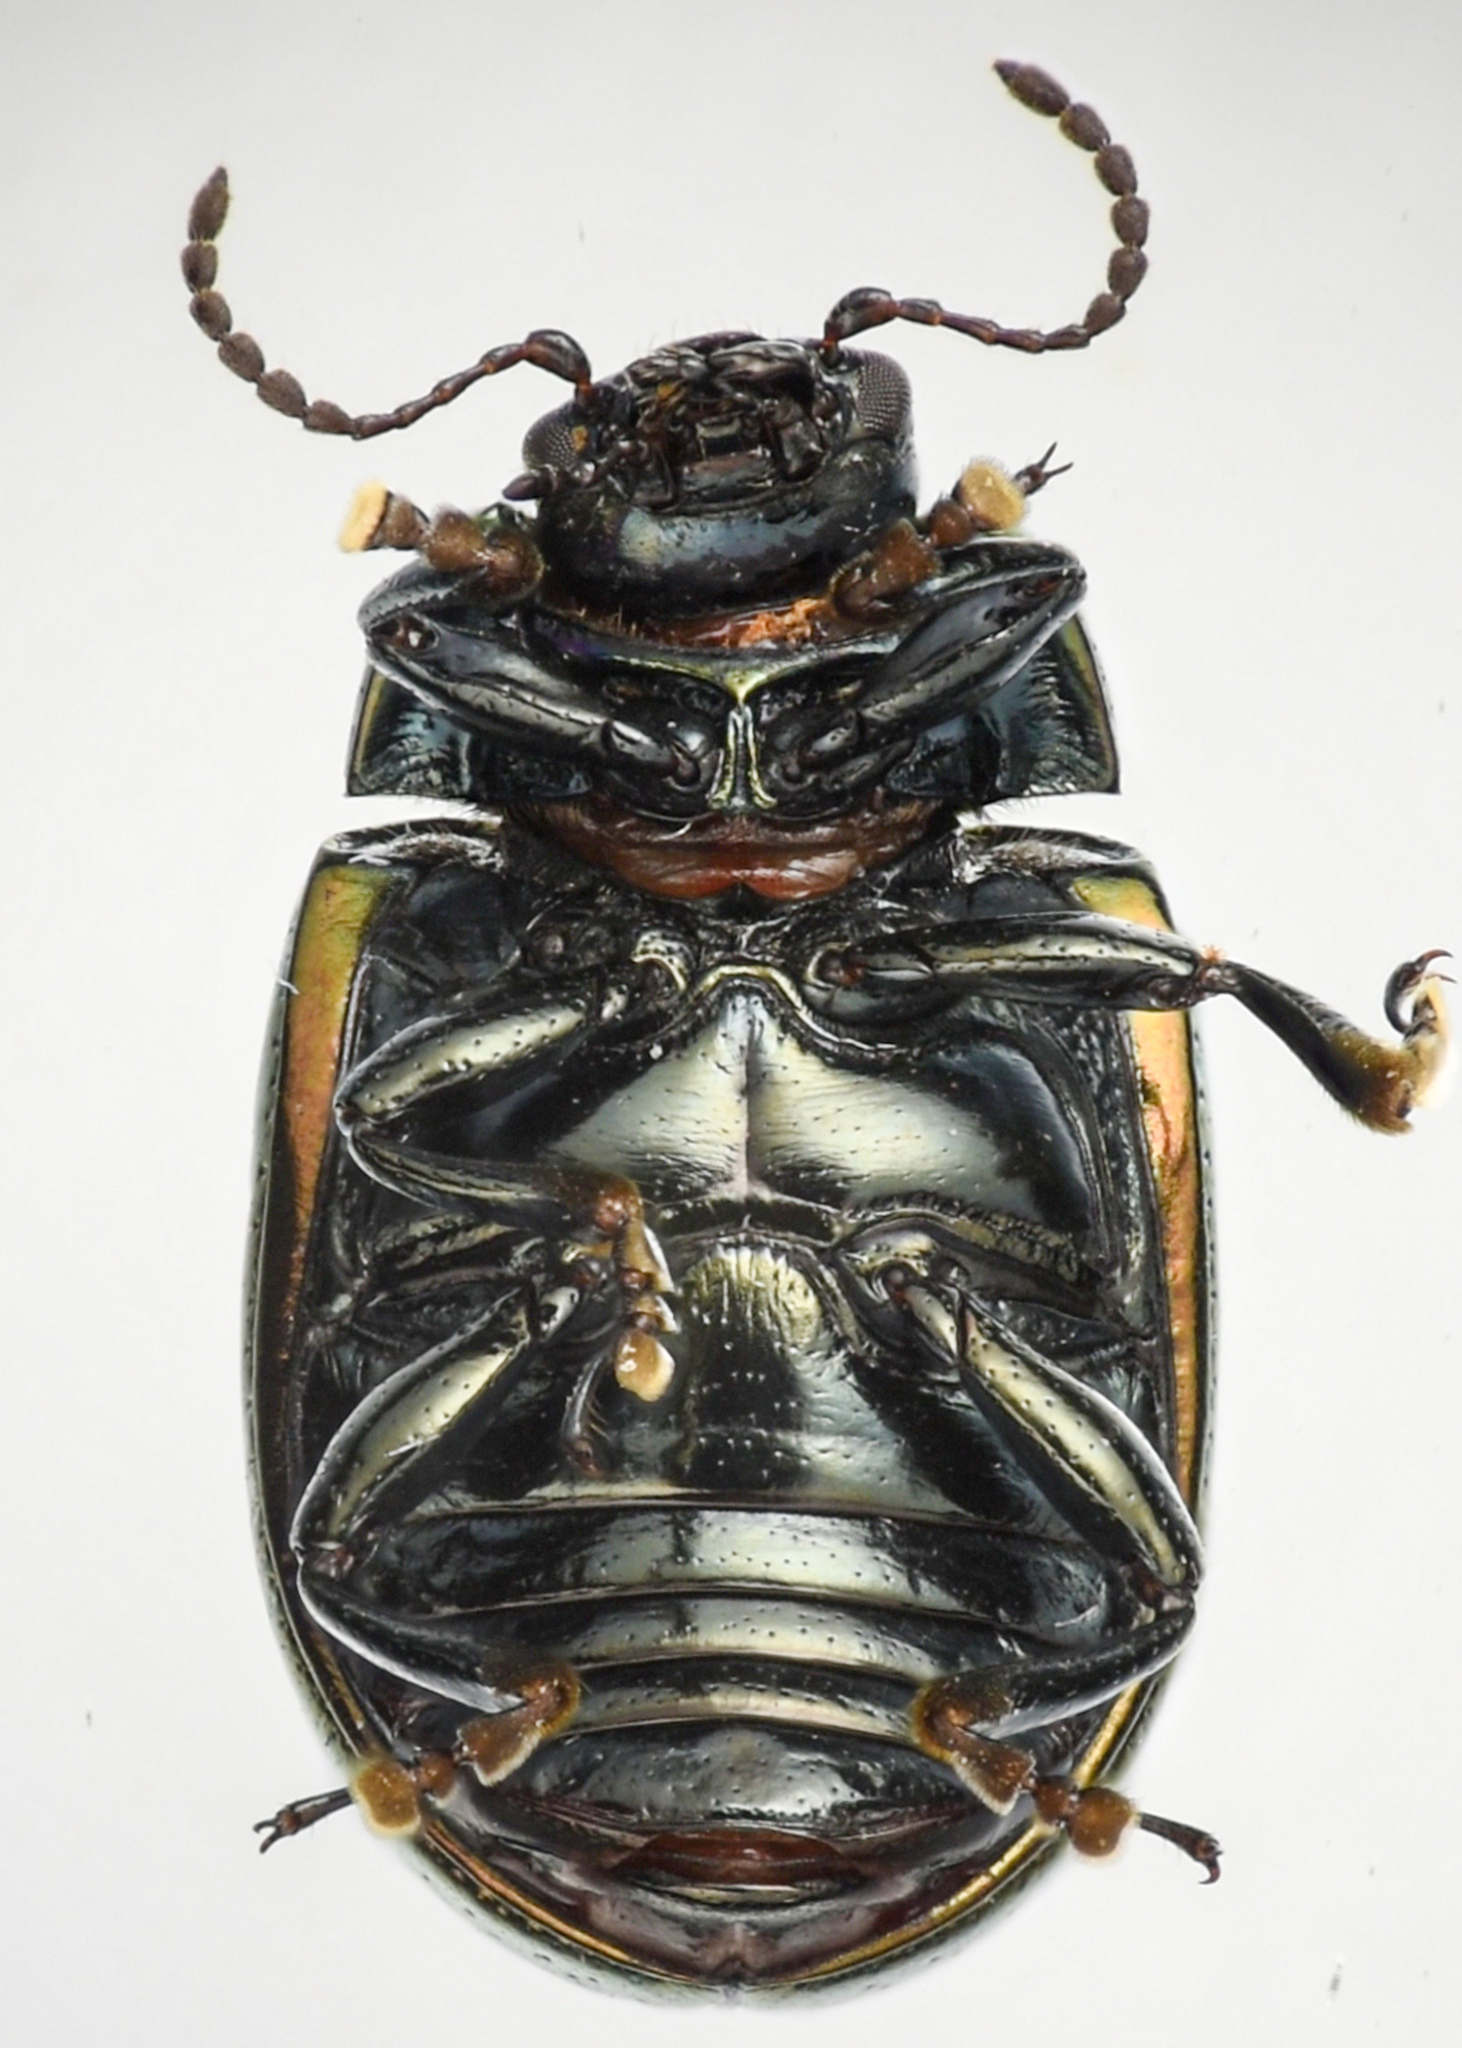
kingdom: Animalia
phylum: Arthropoda
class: Insecta
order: Coleoptera
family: Chrysomelidae
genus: Chrysolina
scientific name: Chrysolina quadrigemina
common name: Leaf beetle
